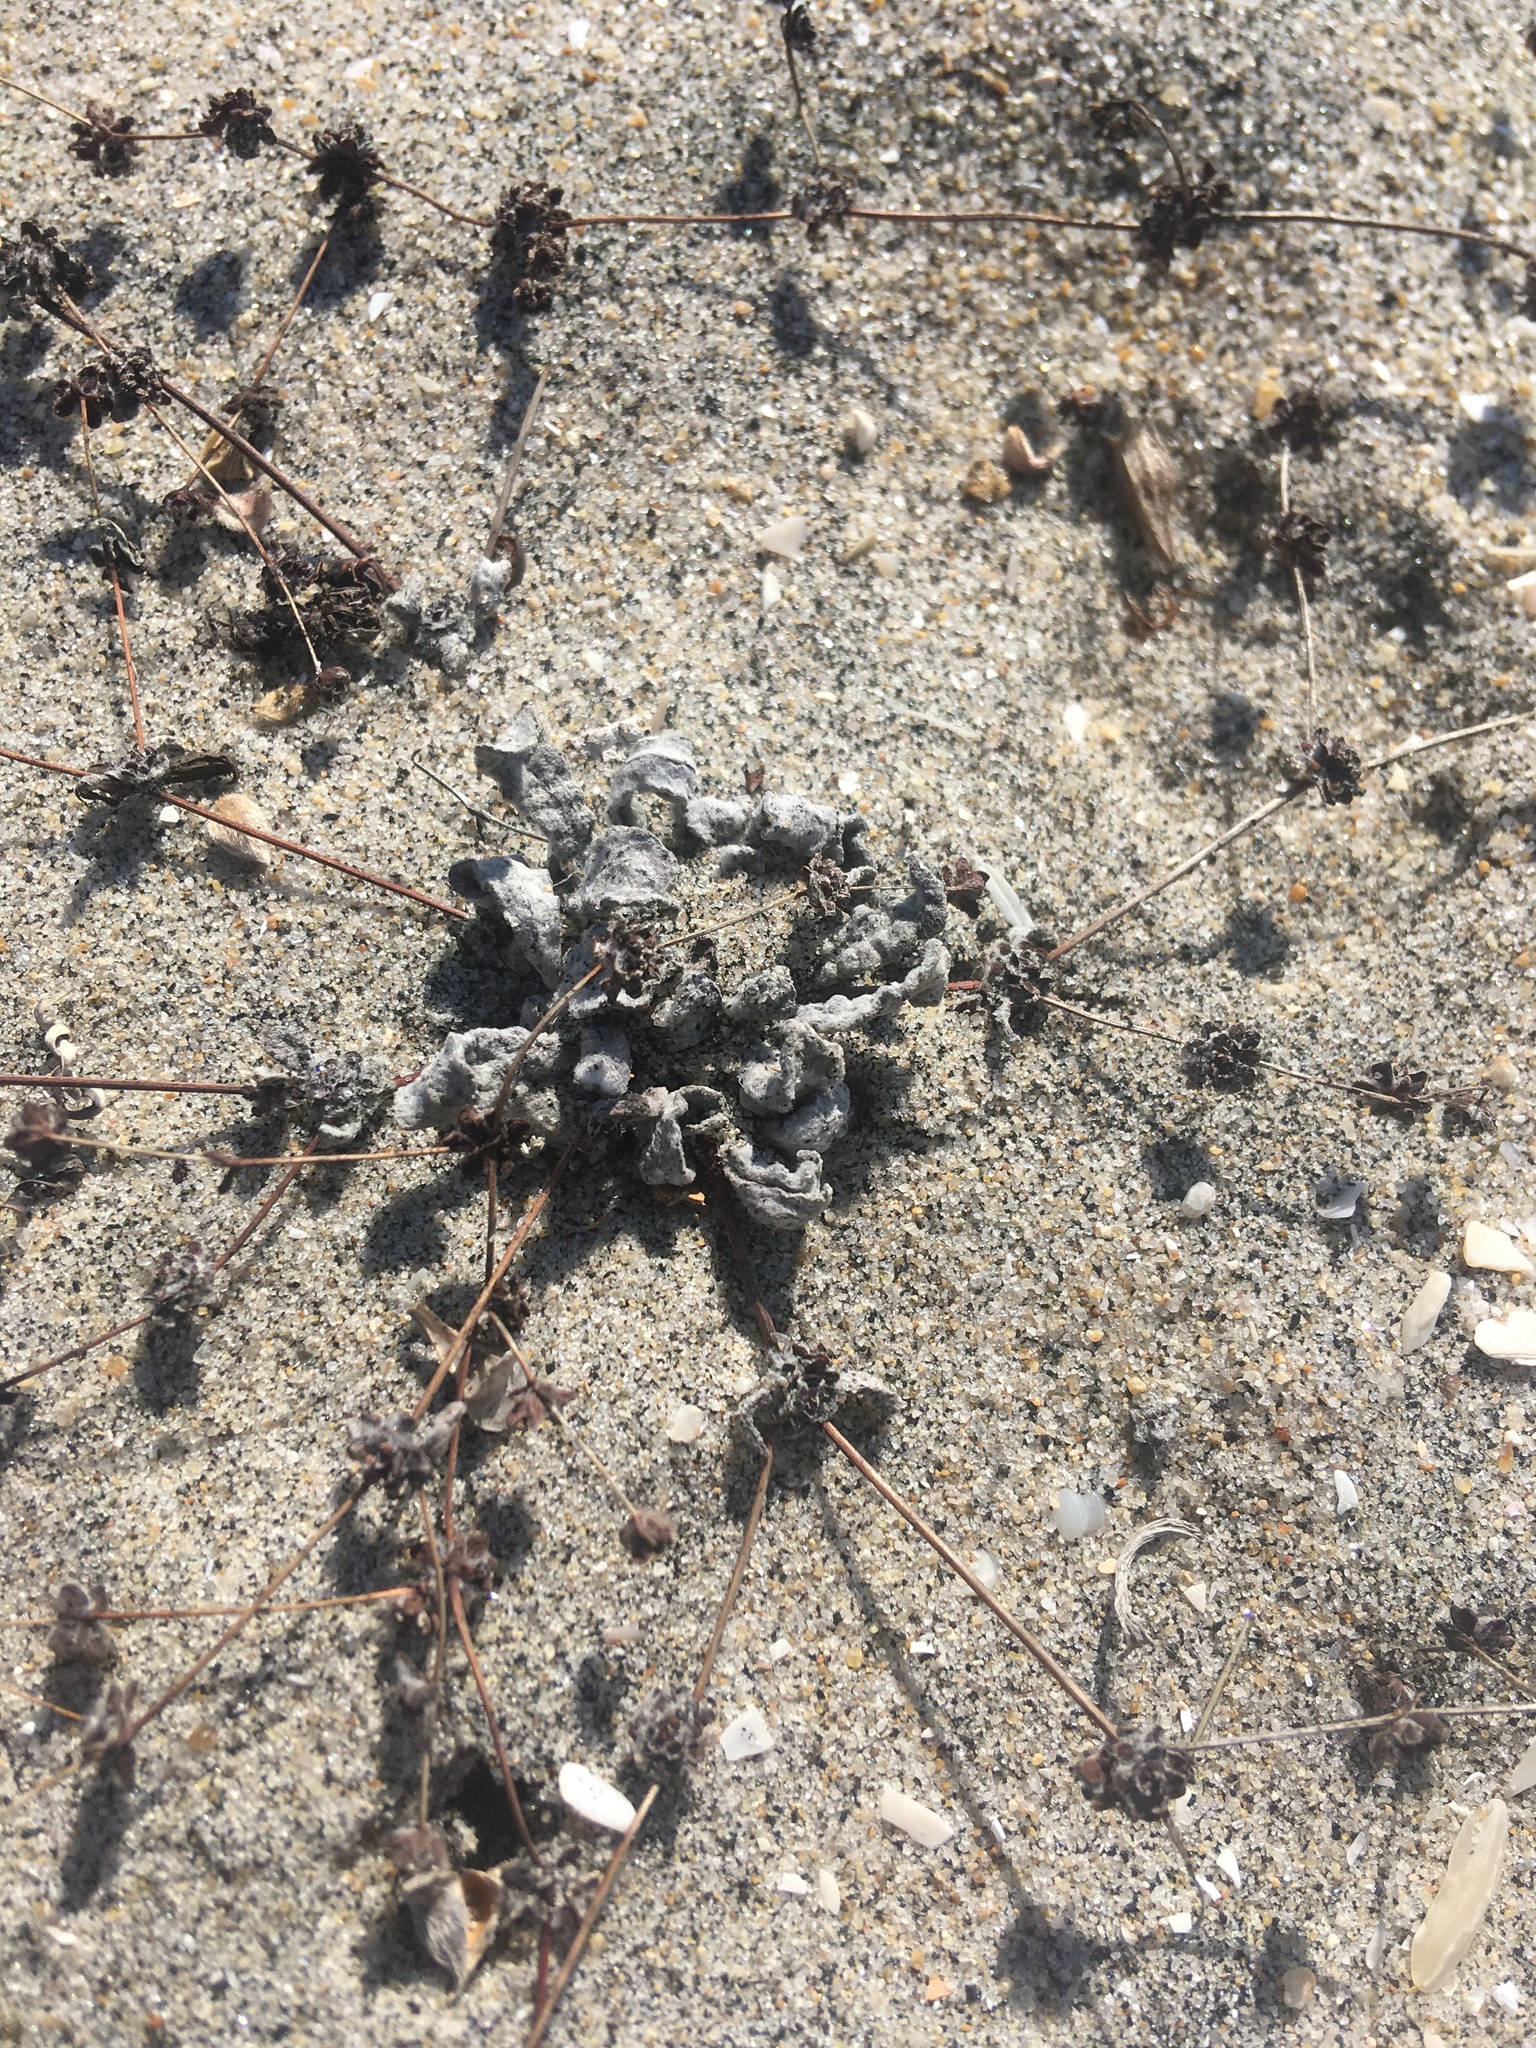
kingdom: Plantae
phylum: Tracheophyta
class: Magnoliopsida
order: Caryophyllales
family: Polygonaceae
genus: Nemacaulis
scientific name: Nemacaulis denudata
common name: Woolly-heads
